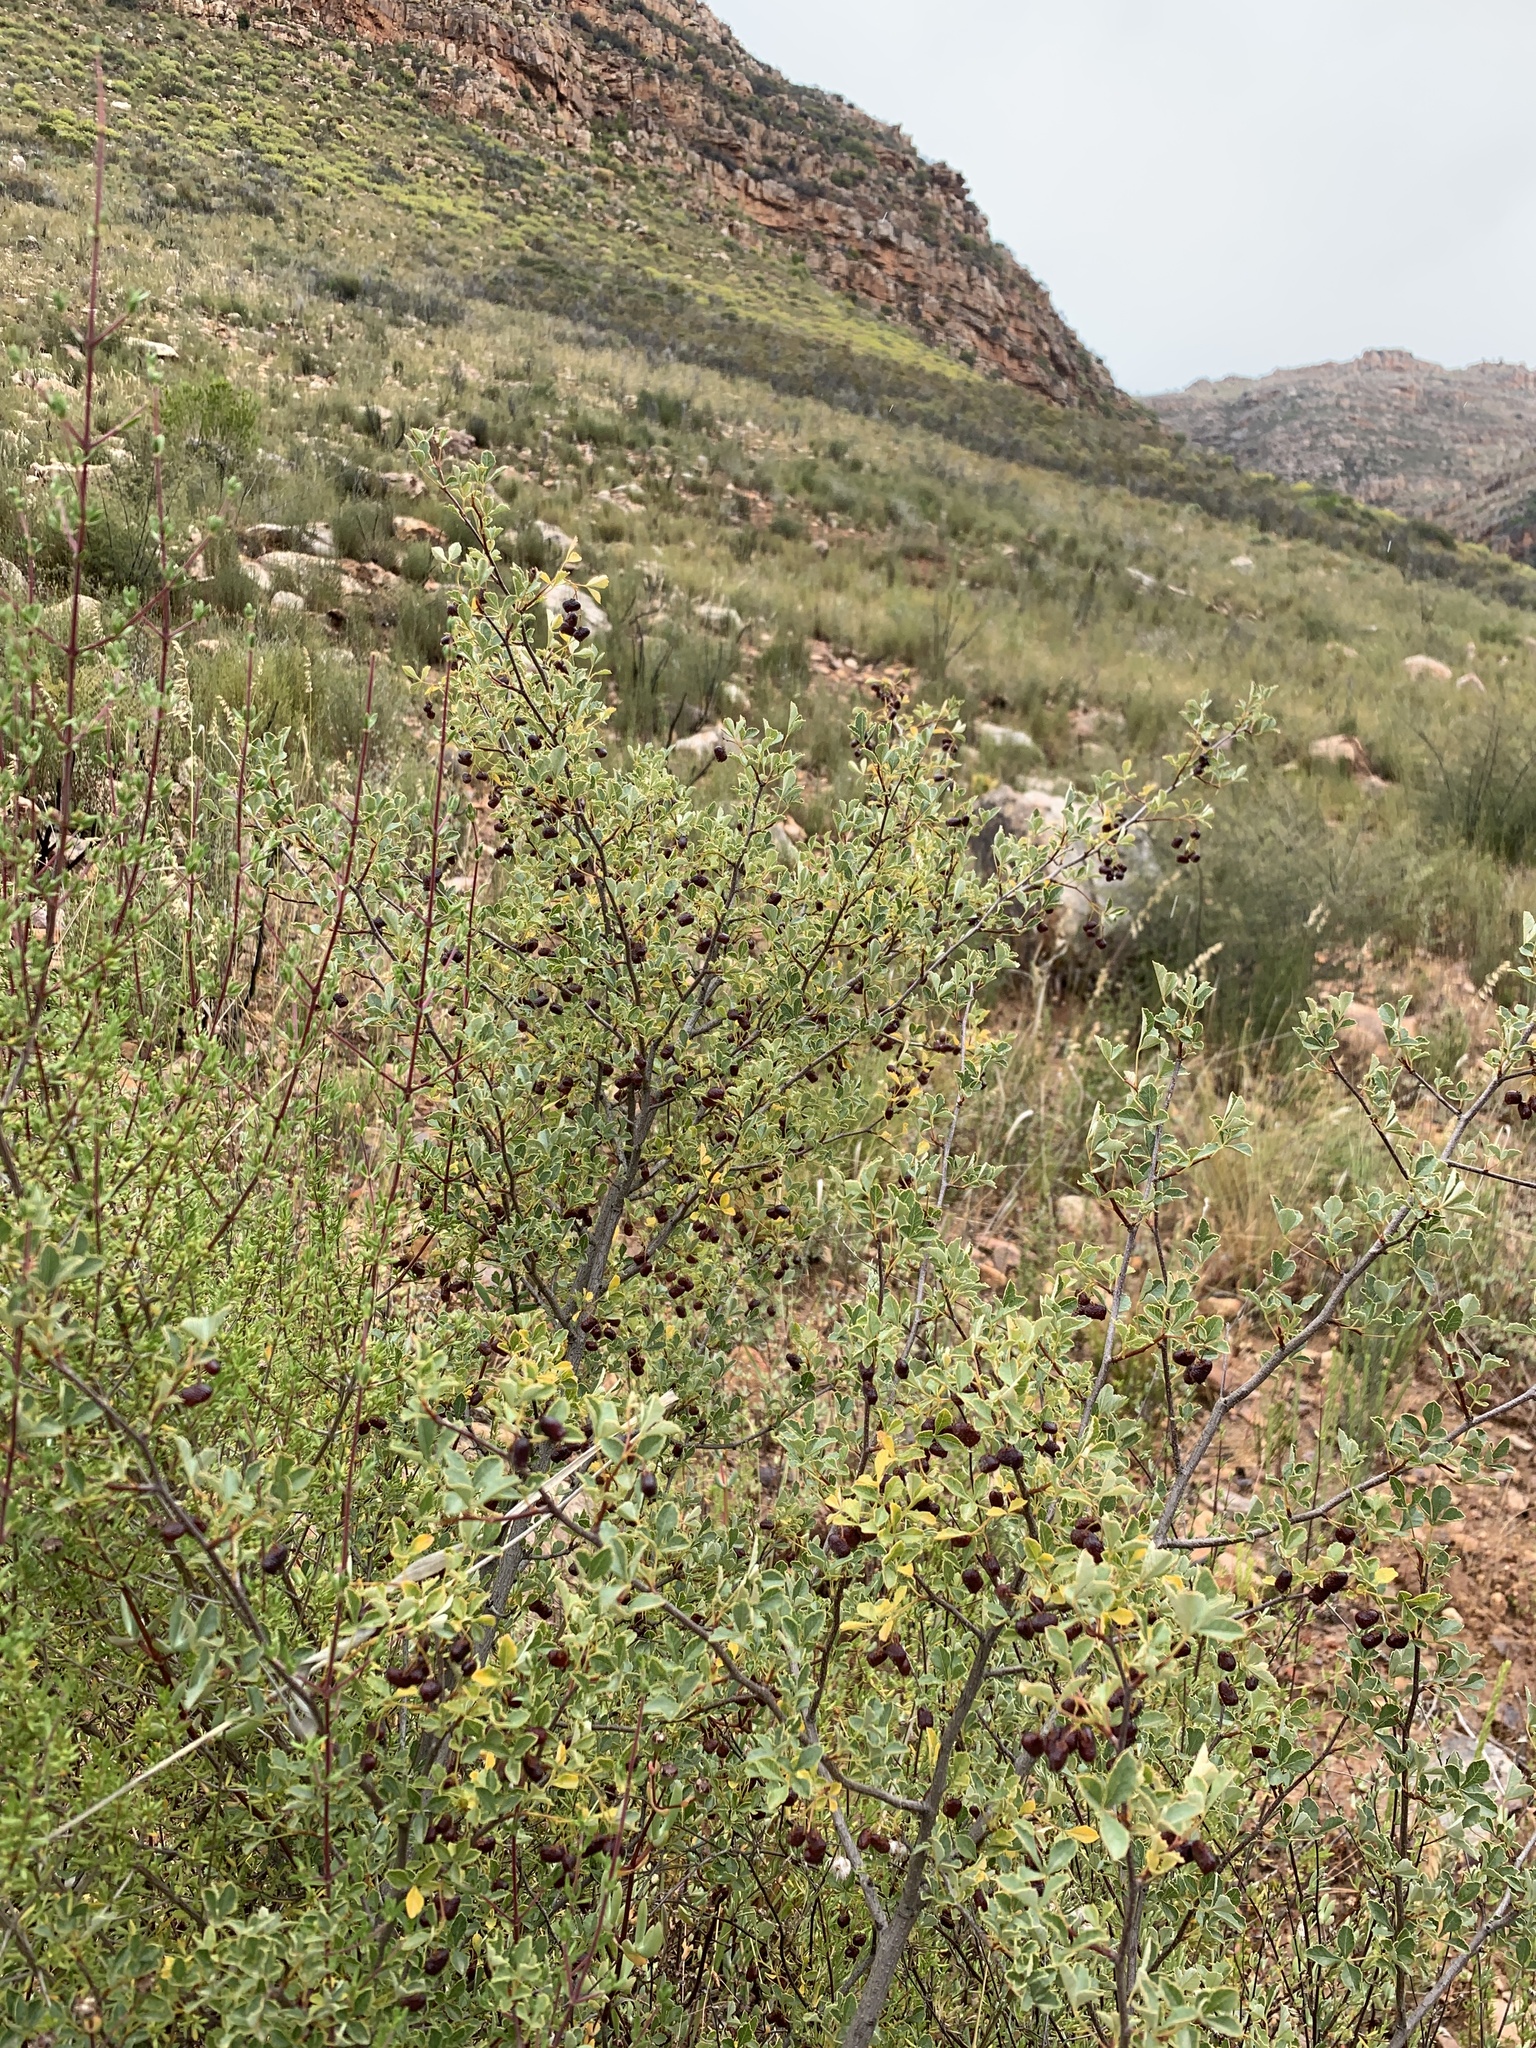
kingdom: Plantae
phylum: Tracheophyta
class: Magnoliopsida
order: Sapindales
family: Anacardiaceae
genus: Searsia
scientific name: Searsia dissecta
